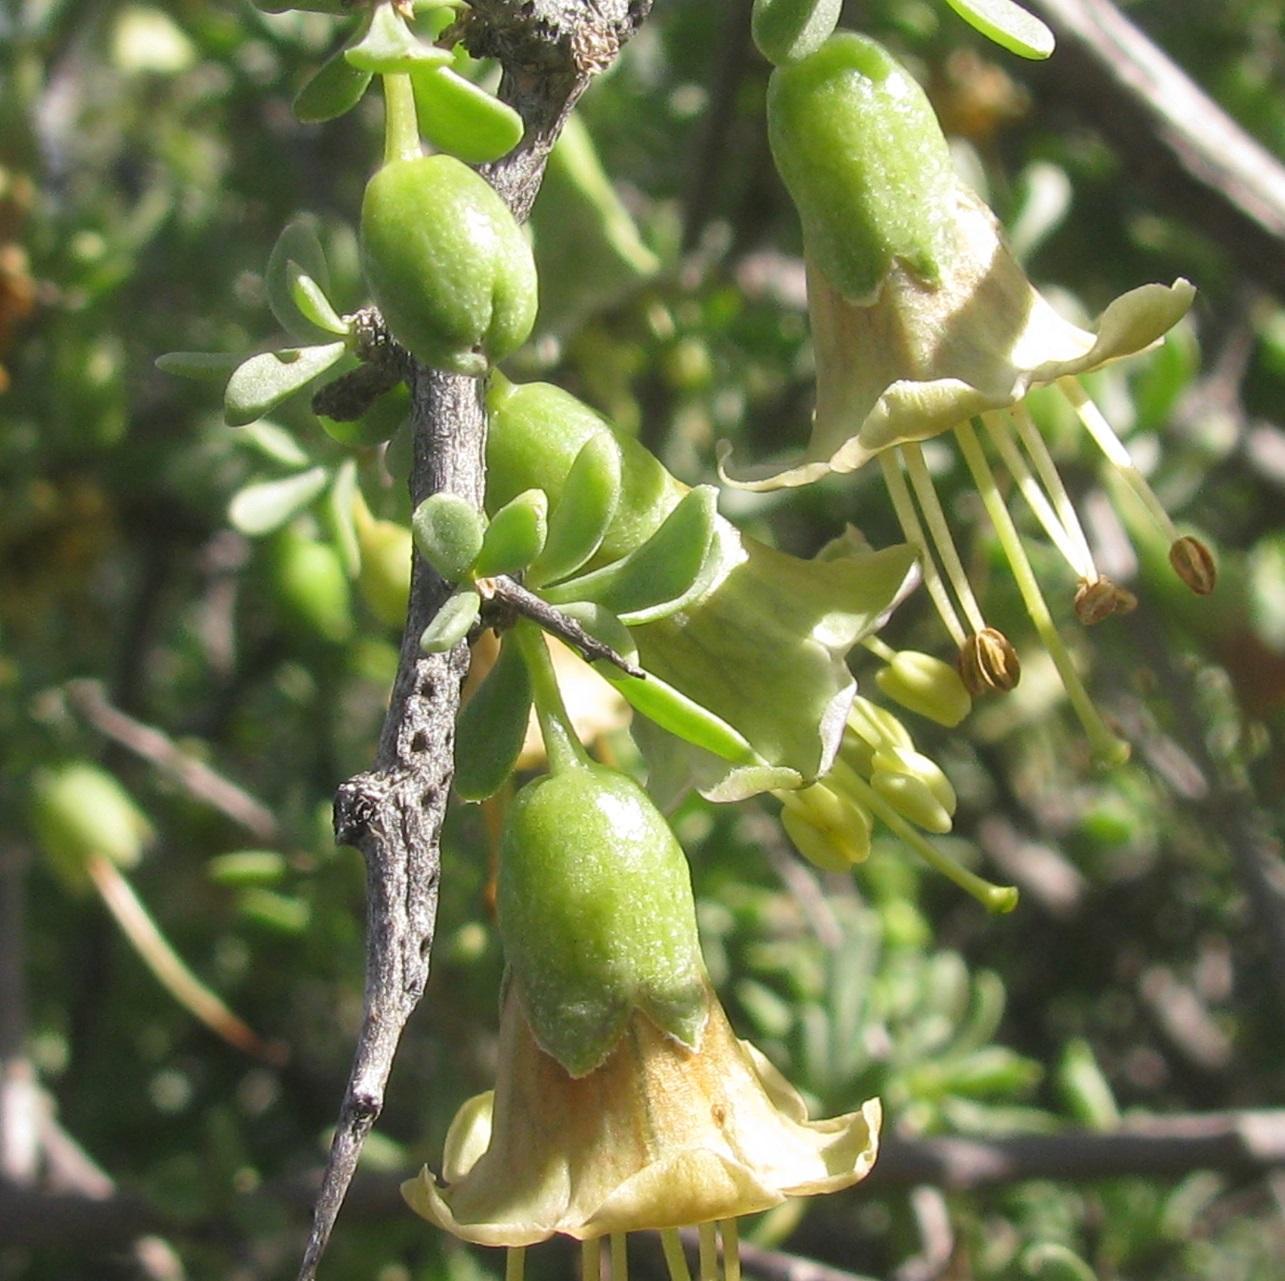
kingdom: Plantae
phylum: Tracheophyta
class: Magnoliopsida
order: Solanales
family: Solanaceae
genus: Lycium
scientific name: Lycium amoenum
